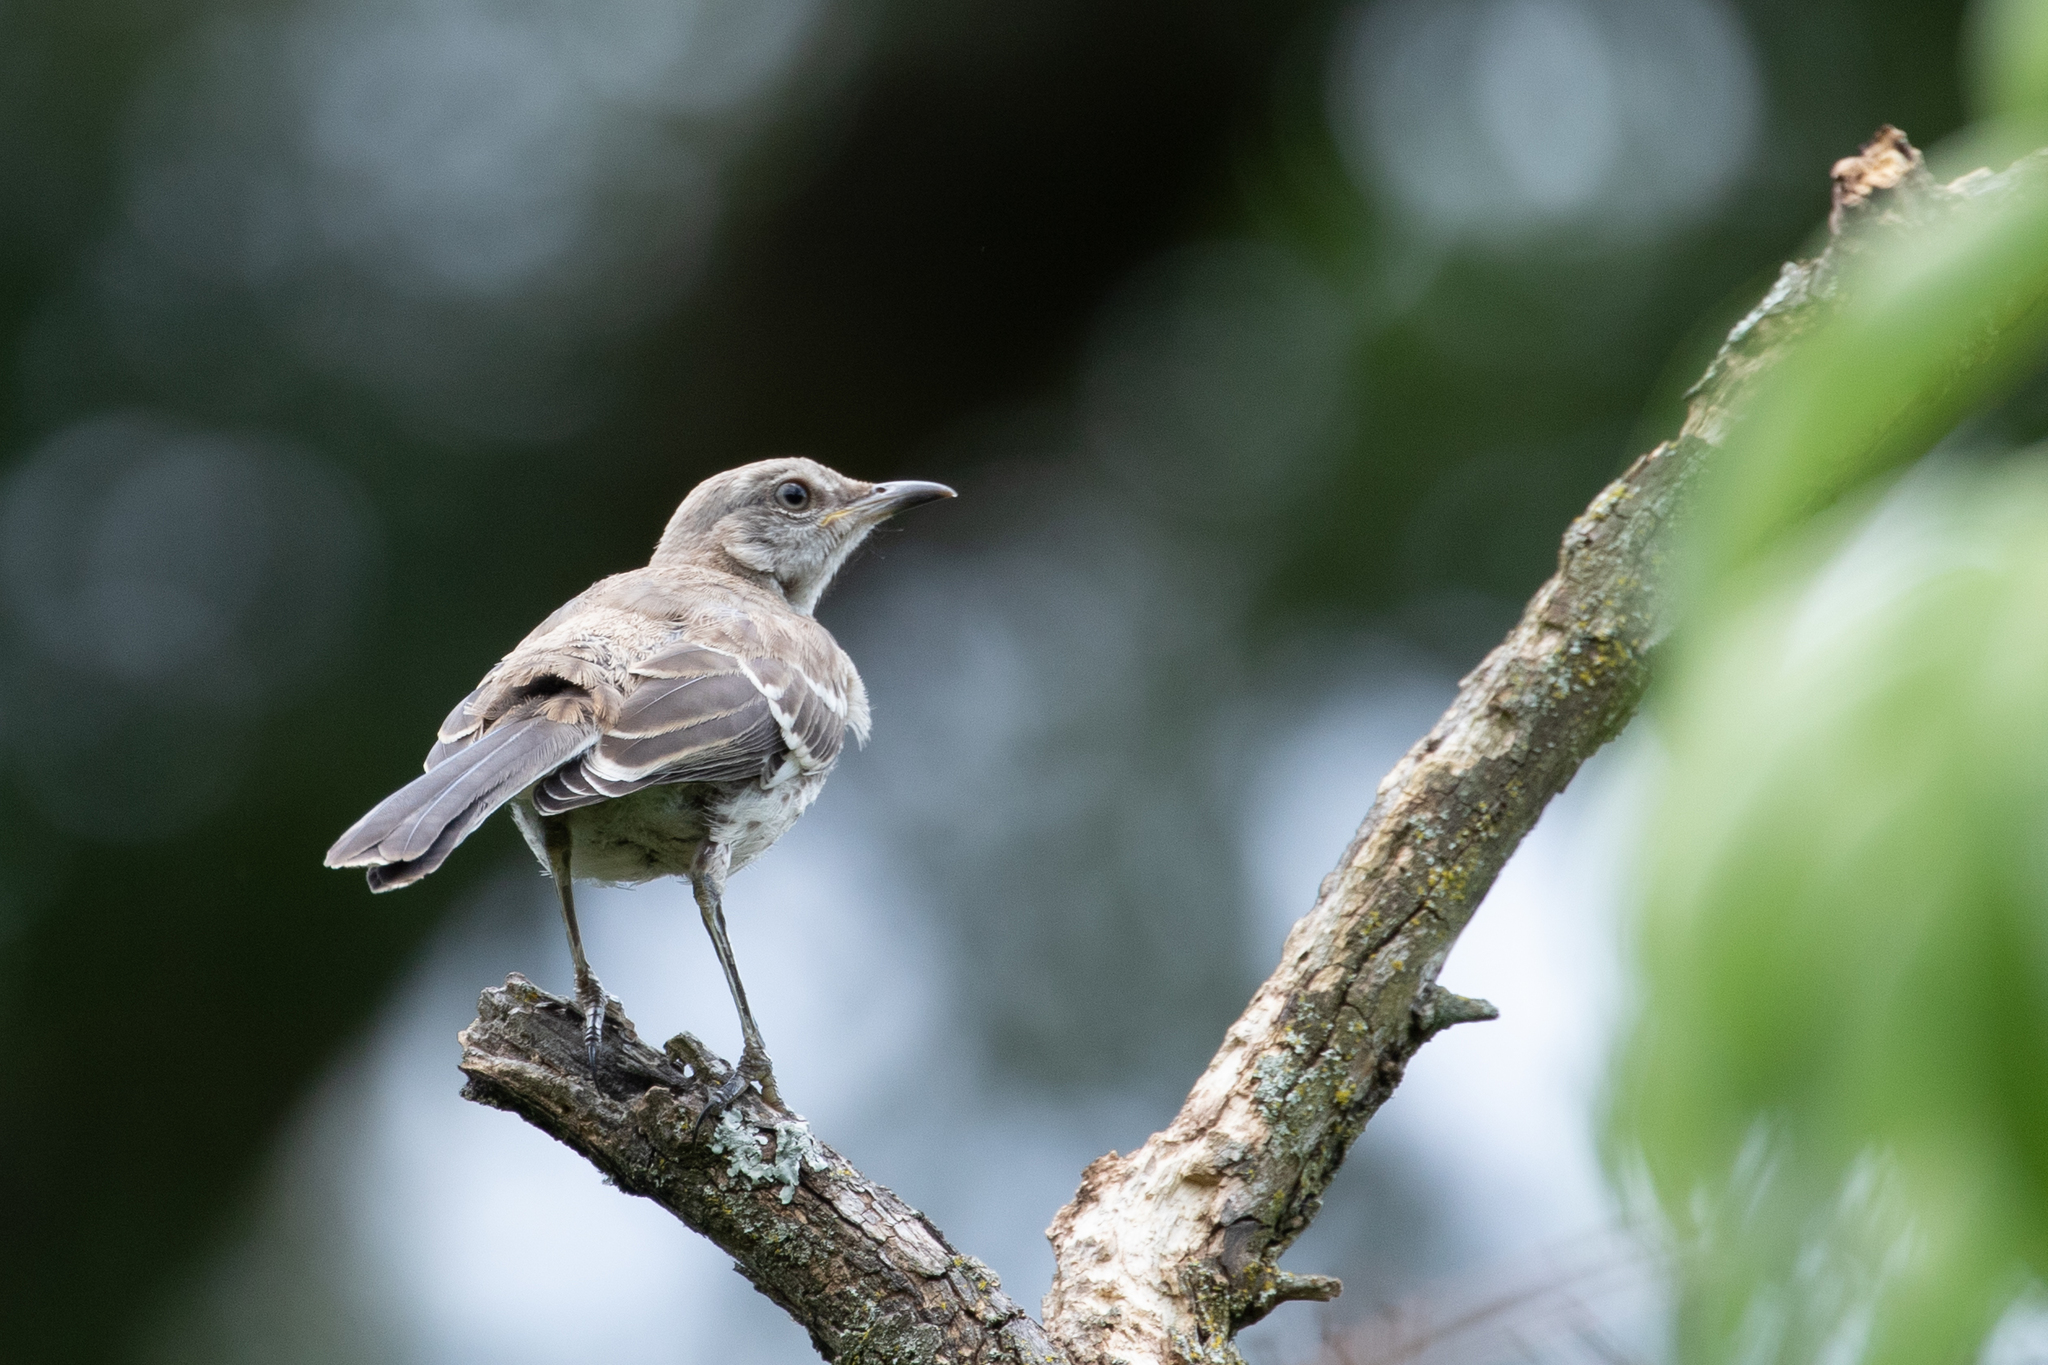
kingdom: Animalia
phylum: Chordata
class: Aves
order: Passeriformes
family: Mimidae
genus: Mimus
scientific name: Mimus polyglottos
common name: Northern mockingbird
